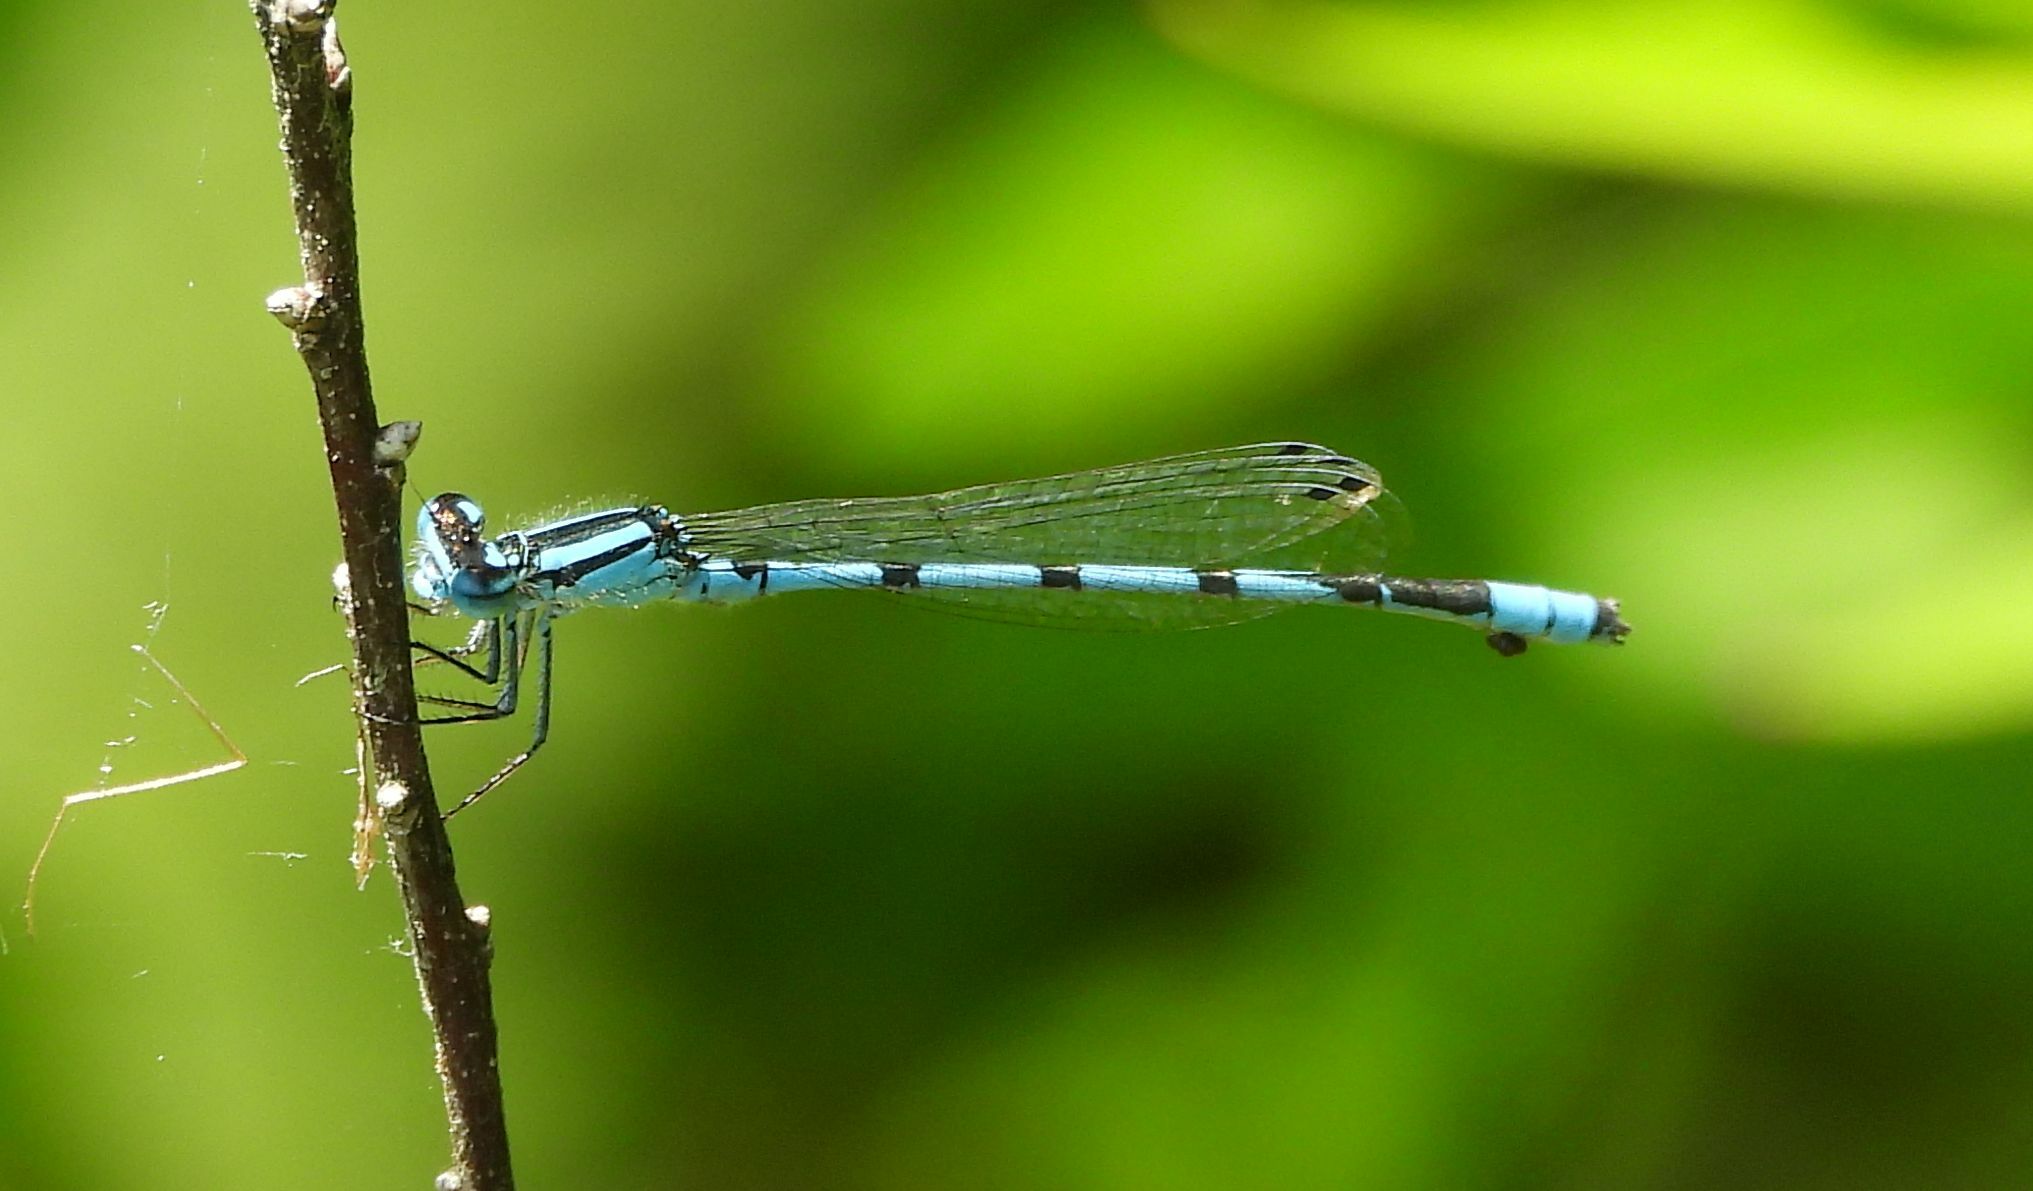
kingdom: Animalia
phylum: Arthropoda
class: Insecta
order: Odonata
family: Coenagrionidae
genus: Enallagma
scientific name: Enallagma ebrium
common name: Marsh bluet
